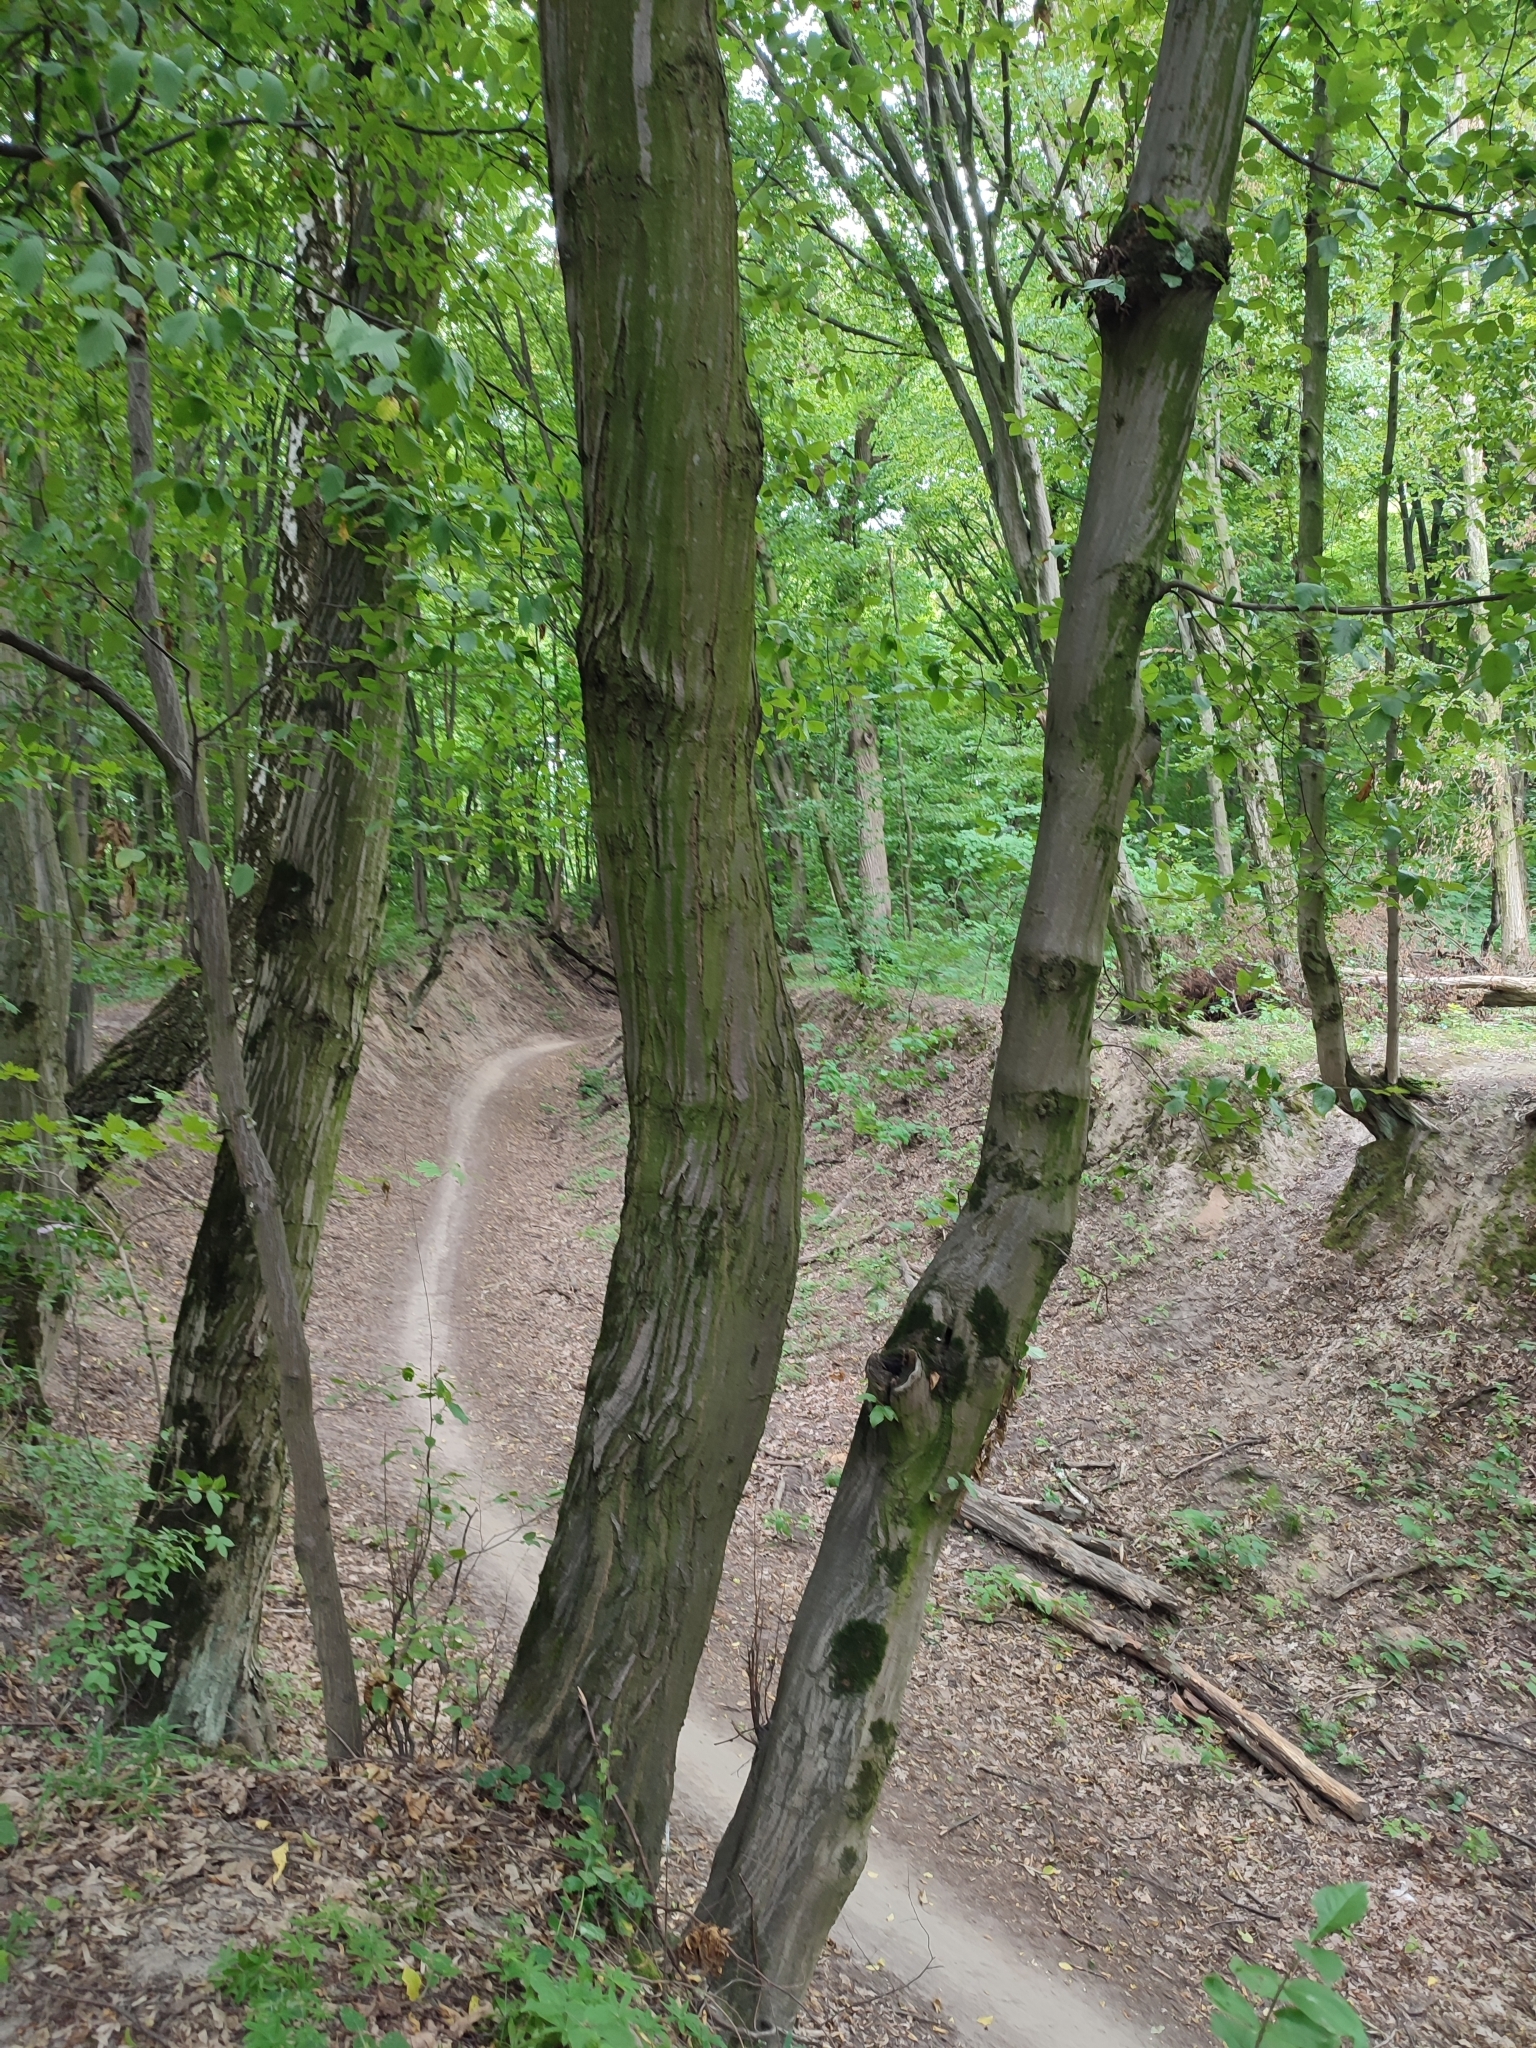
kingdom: Plantae
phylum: Tracheophyta
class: Magnoliopsida
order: Fagales
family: Betulaceae
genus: Carpinus
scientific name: Carpinus betulus
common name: Hornbeam
